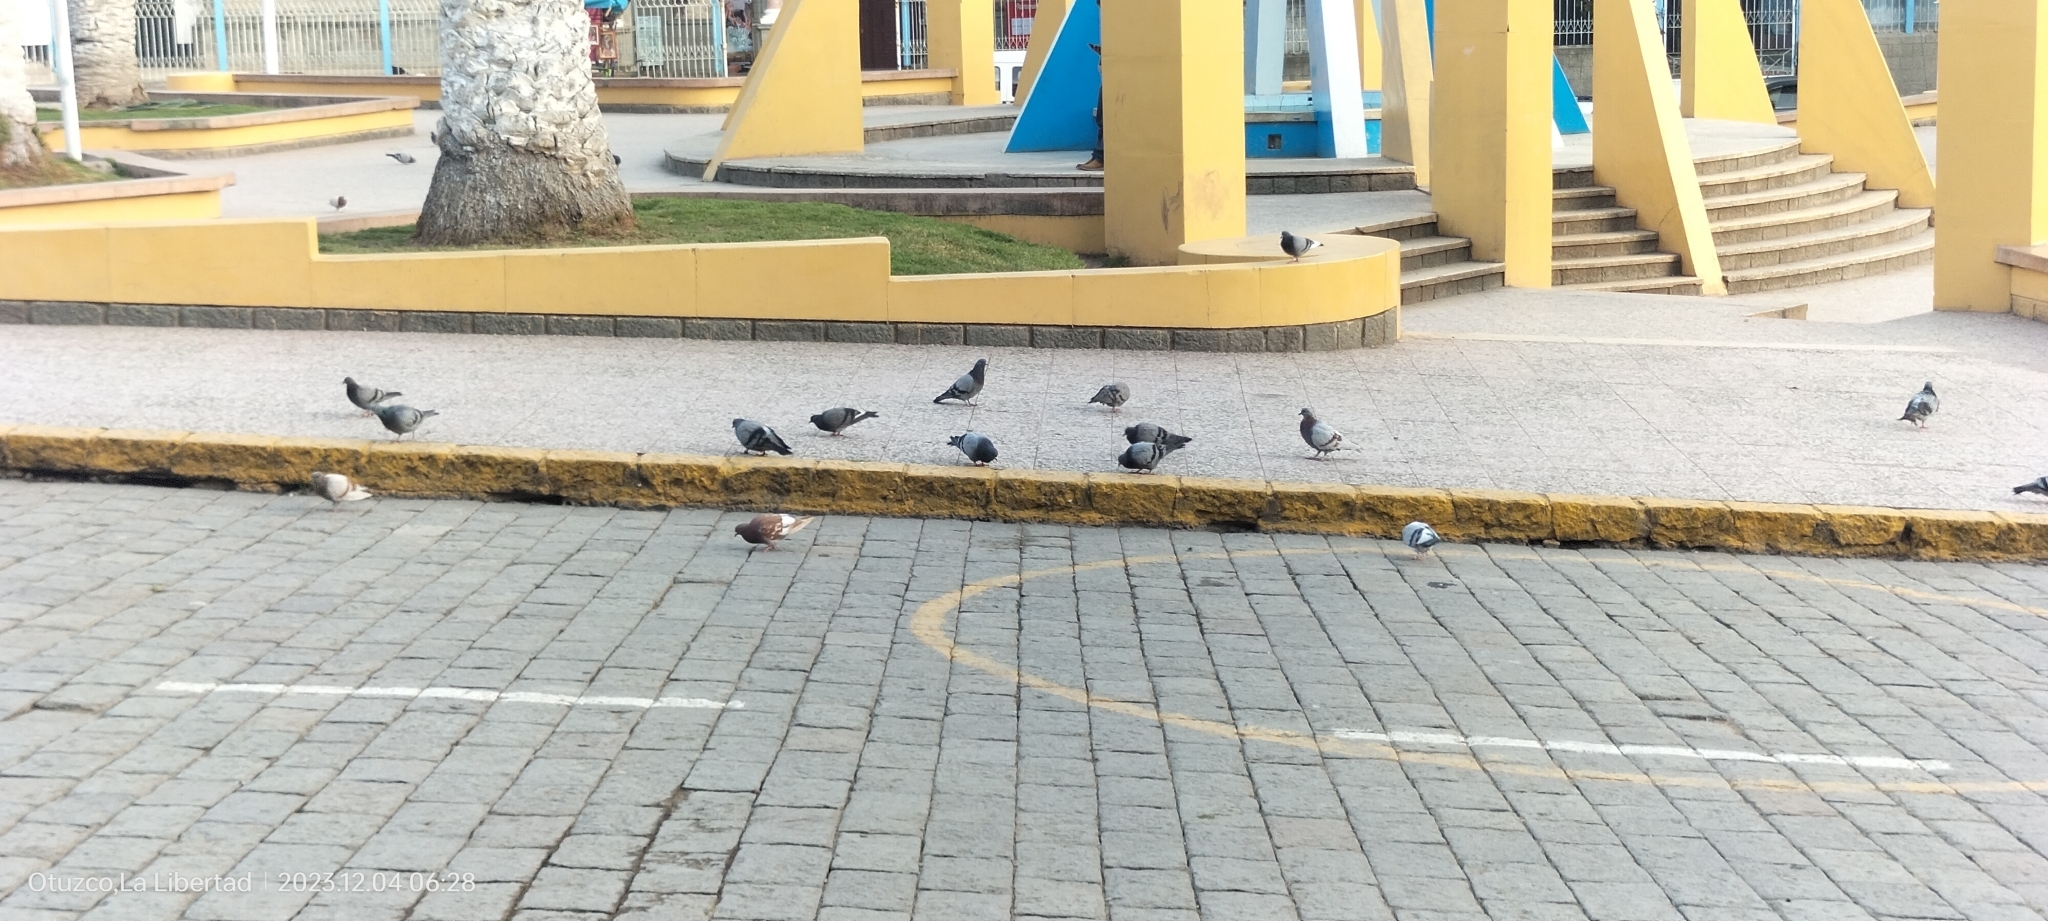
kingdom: Animalia
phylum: Chordata
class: Aves
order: Columbiformes
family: Columbidae
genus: Columba
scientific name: Columba livia
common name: Rock pigeon
